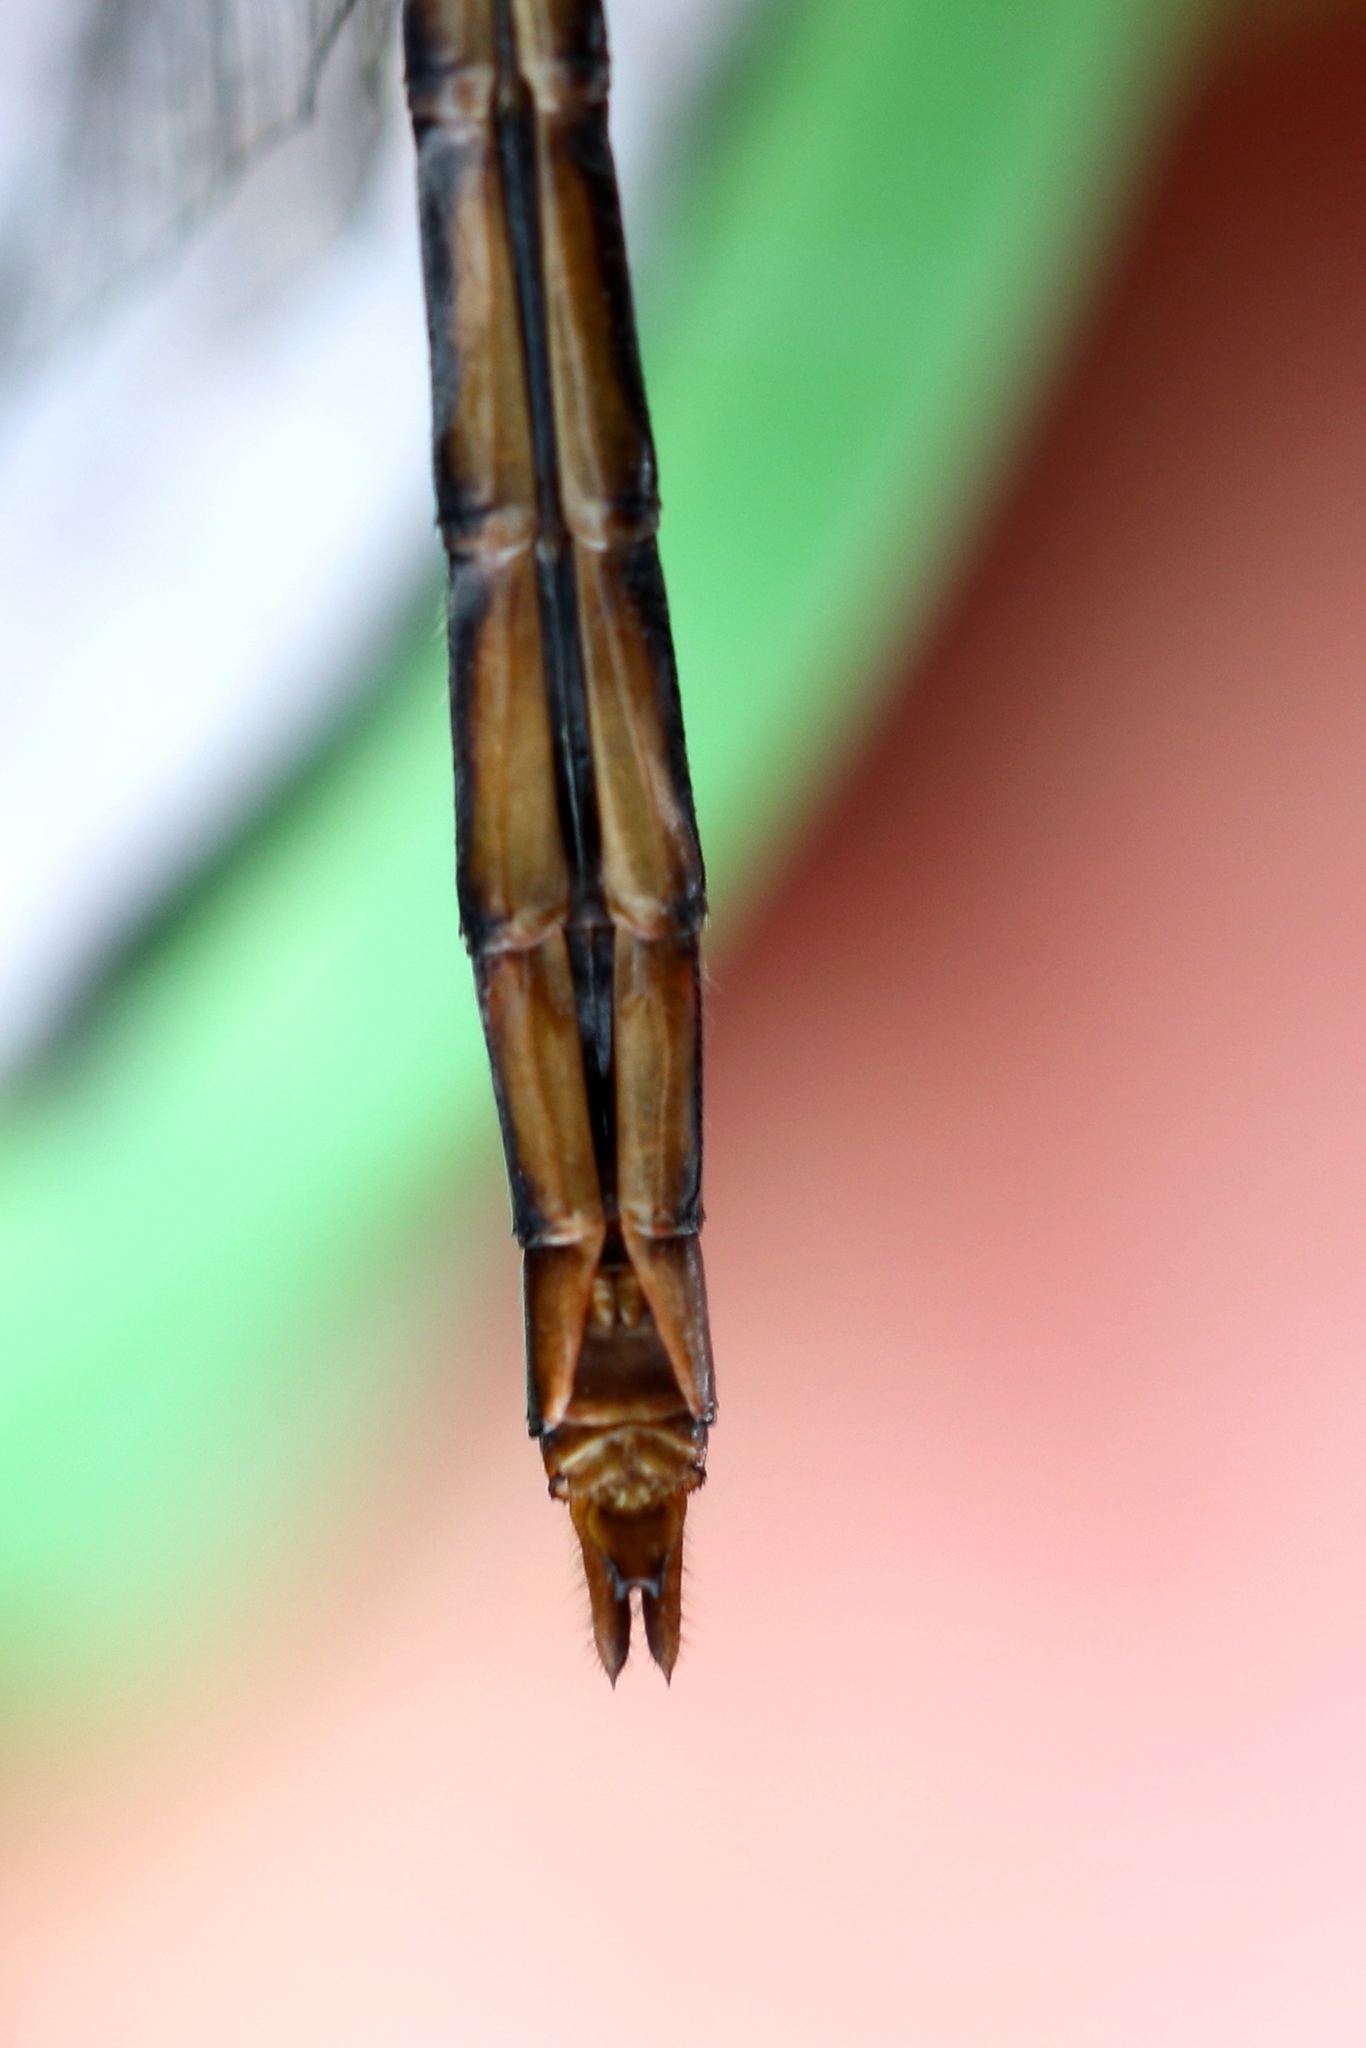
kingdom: Animalia
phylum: Arthropoda
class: Insecta
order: Odonata
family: Libellulidae
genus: Sympetrum
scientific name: Sympetrum obtrusum
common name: White-faced meadowhawk
